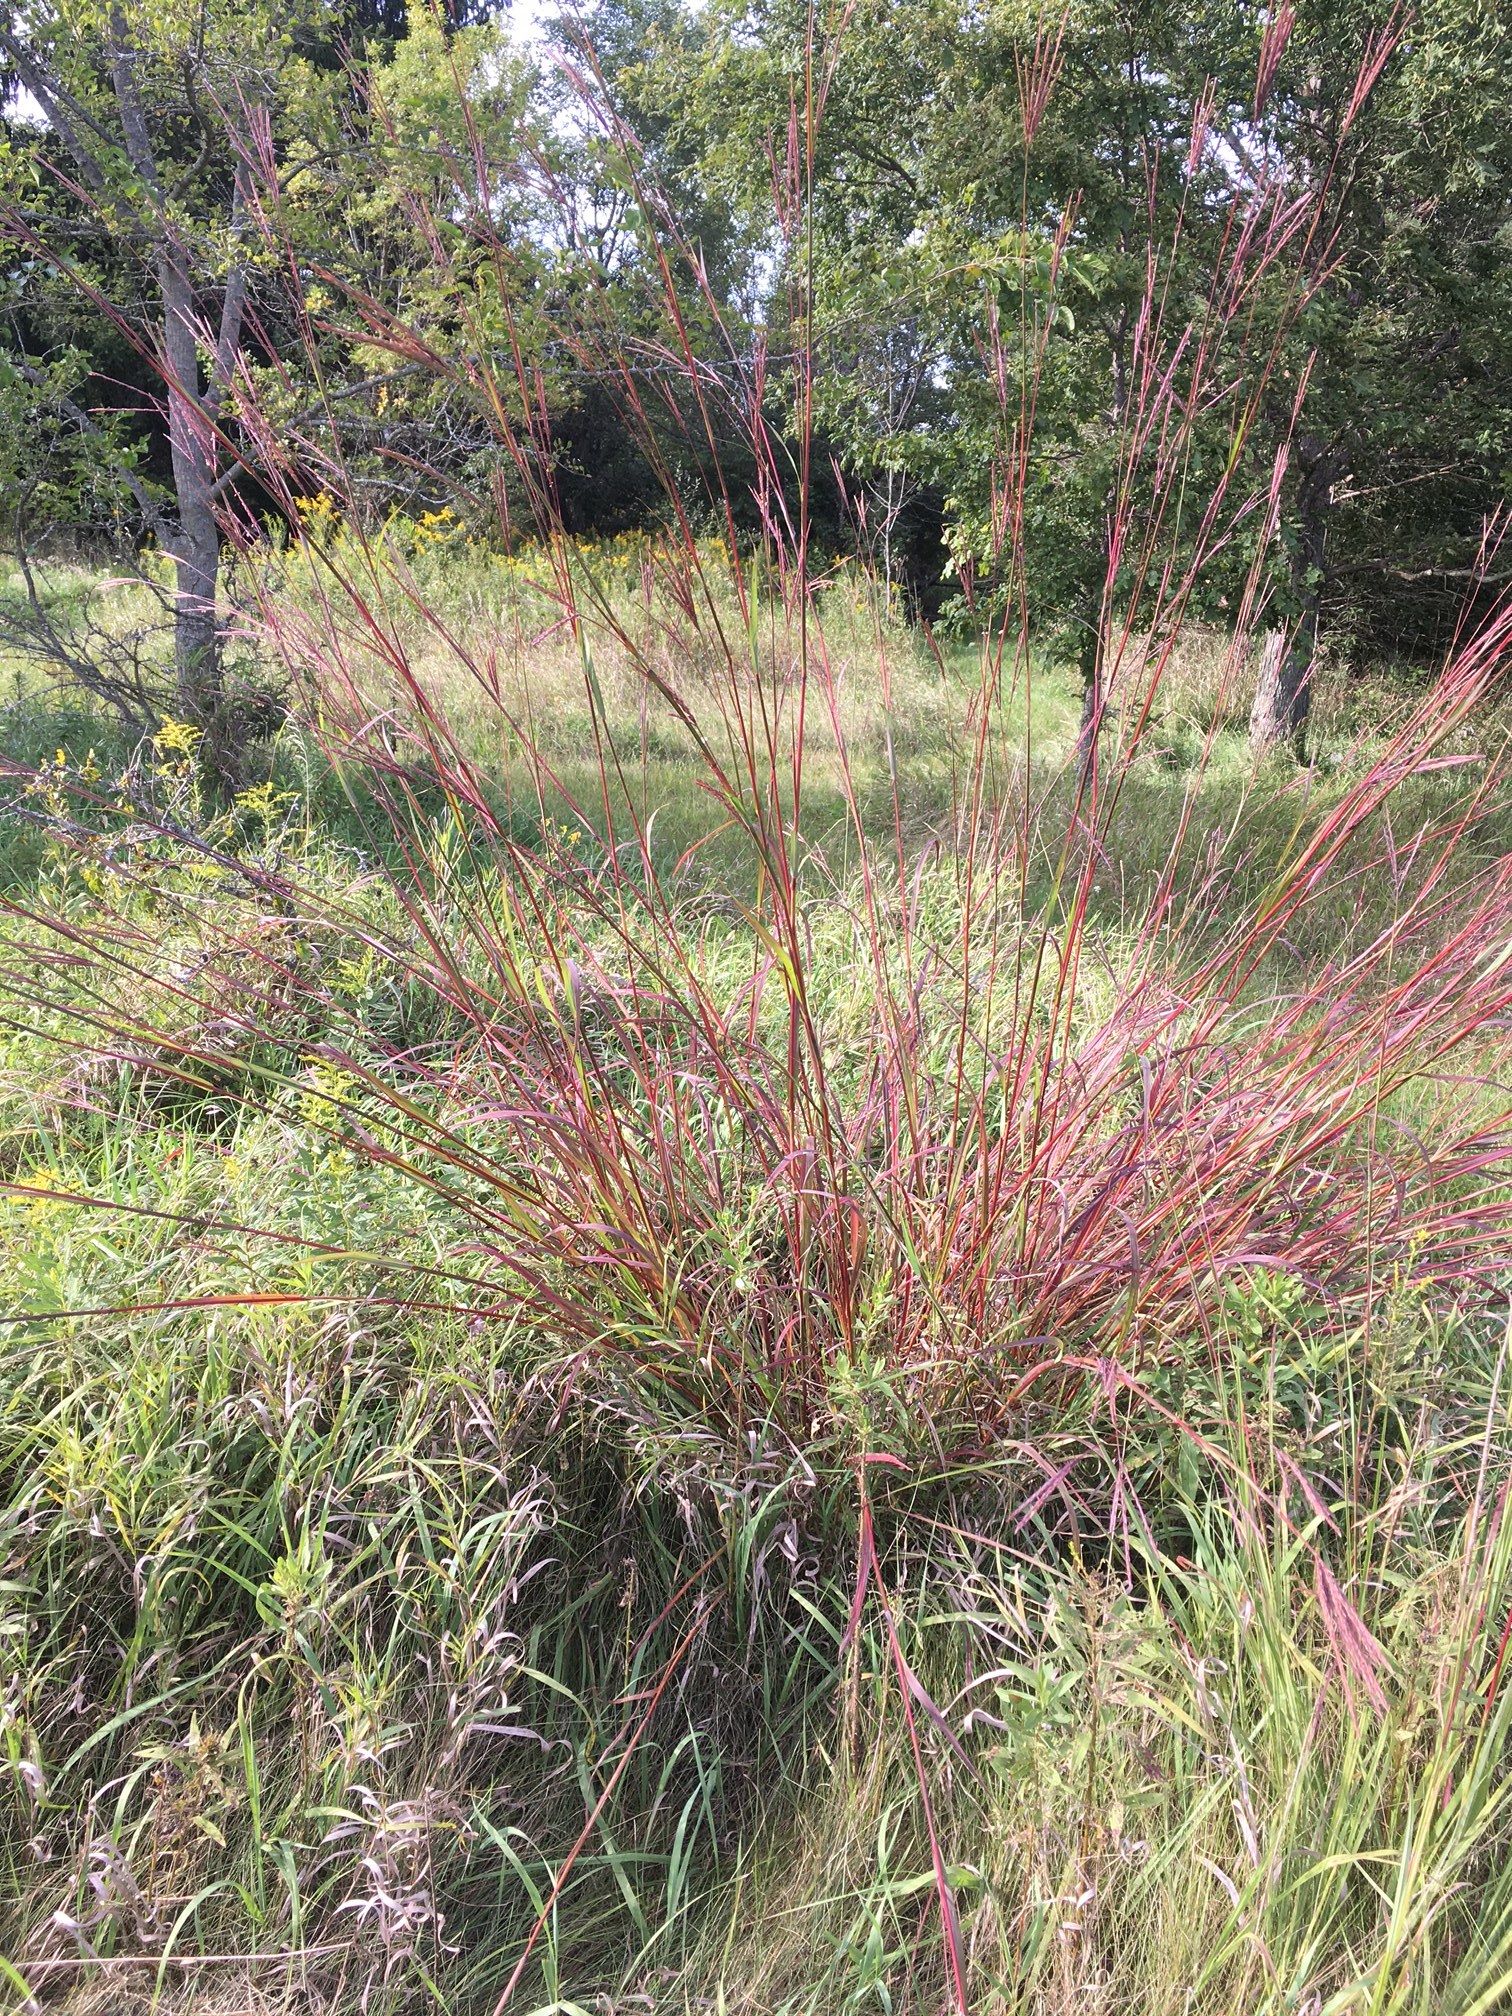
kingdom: Plantae
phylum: Tracheophyta
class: Liliopsida
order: Poales
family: Poaceae
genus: Andropogon
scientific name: Andropogon gerardi
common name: Big bluestem
